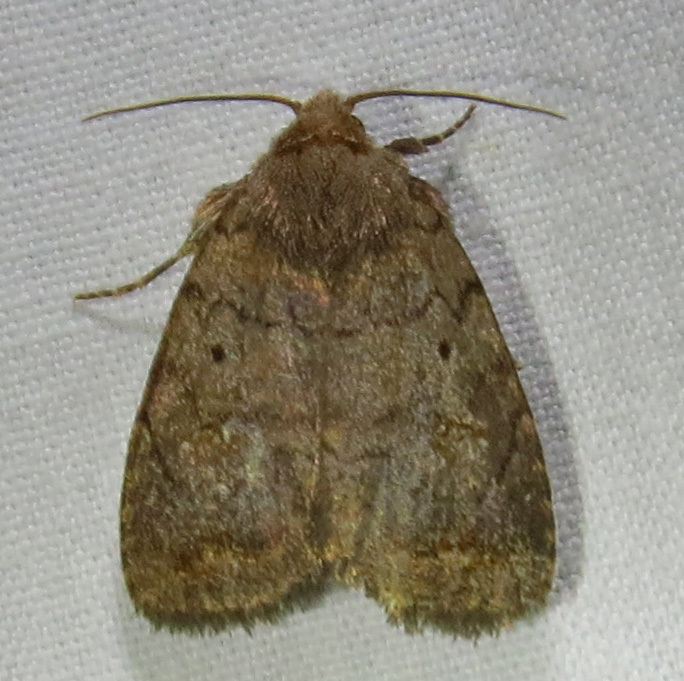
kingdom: Animalia
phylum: Arthropoda
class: Insecta
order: Lepidoptera
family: Noctuidae
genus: Athetis
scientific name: Athetis tarda
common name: Slowpoke moth
